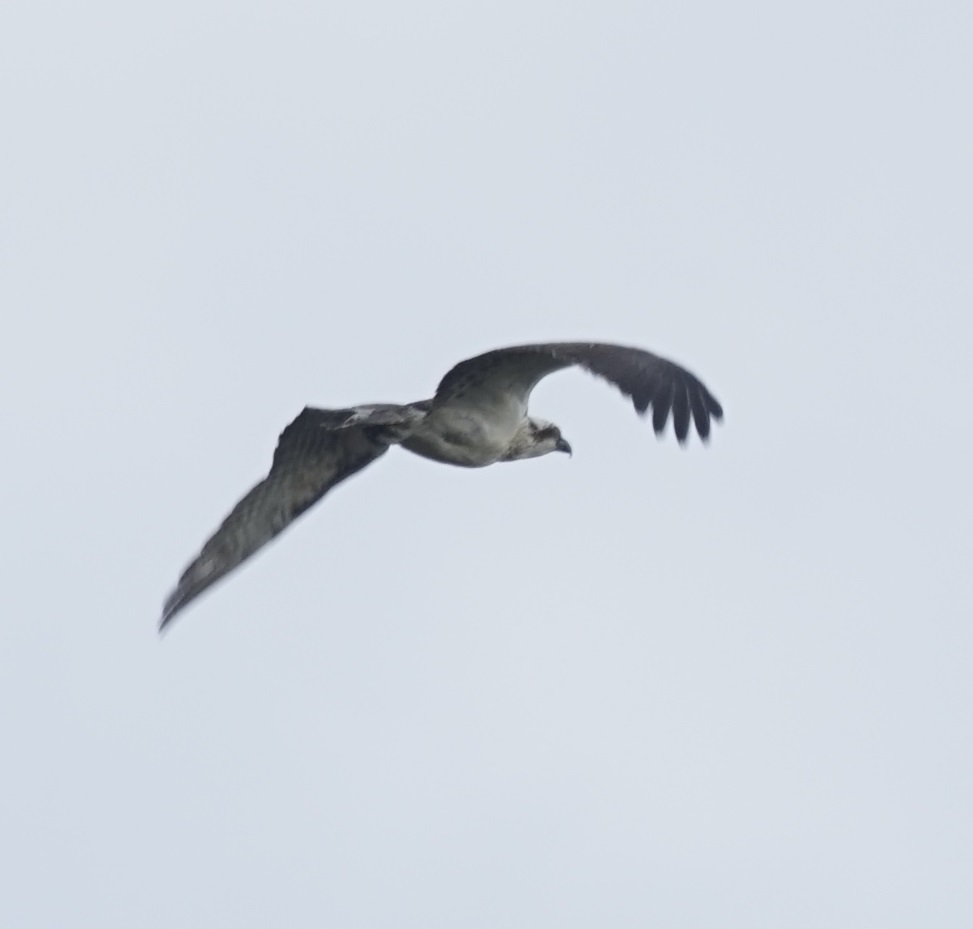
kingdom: Animalia
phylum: Chordata
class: Aves
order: Accipitriformes
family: Pandionidae
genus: Pandion
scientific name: Pandion cristatus
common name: Eastern osprey
